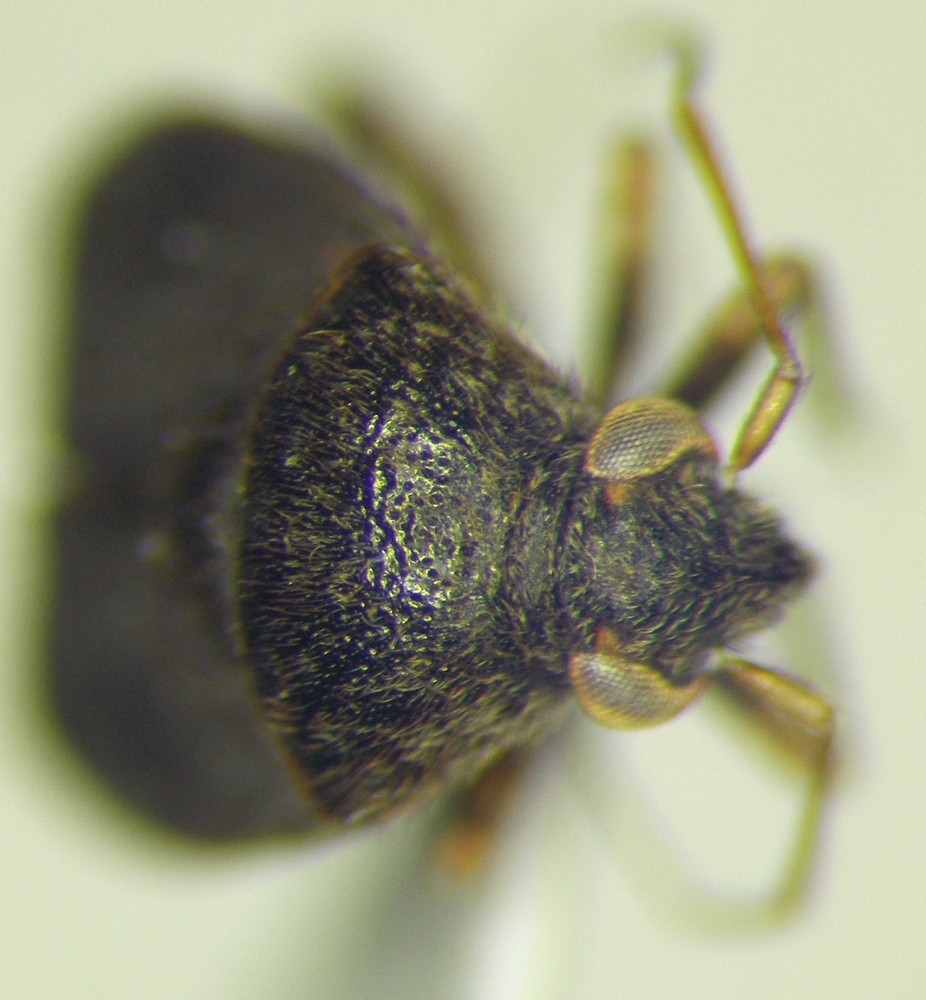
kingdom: Animalia
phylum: Arthropoda
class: Insecta
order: Hemiptera
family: Miridae
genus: Charagochilus
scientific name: Charagochilus gyllenhalii
